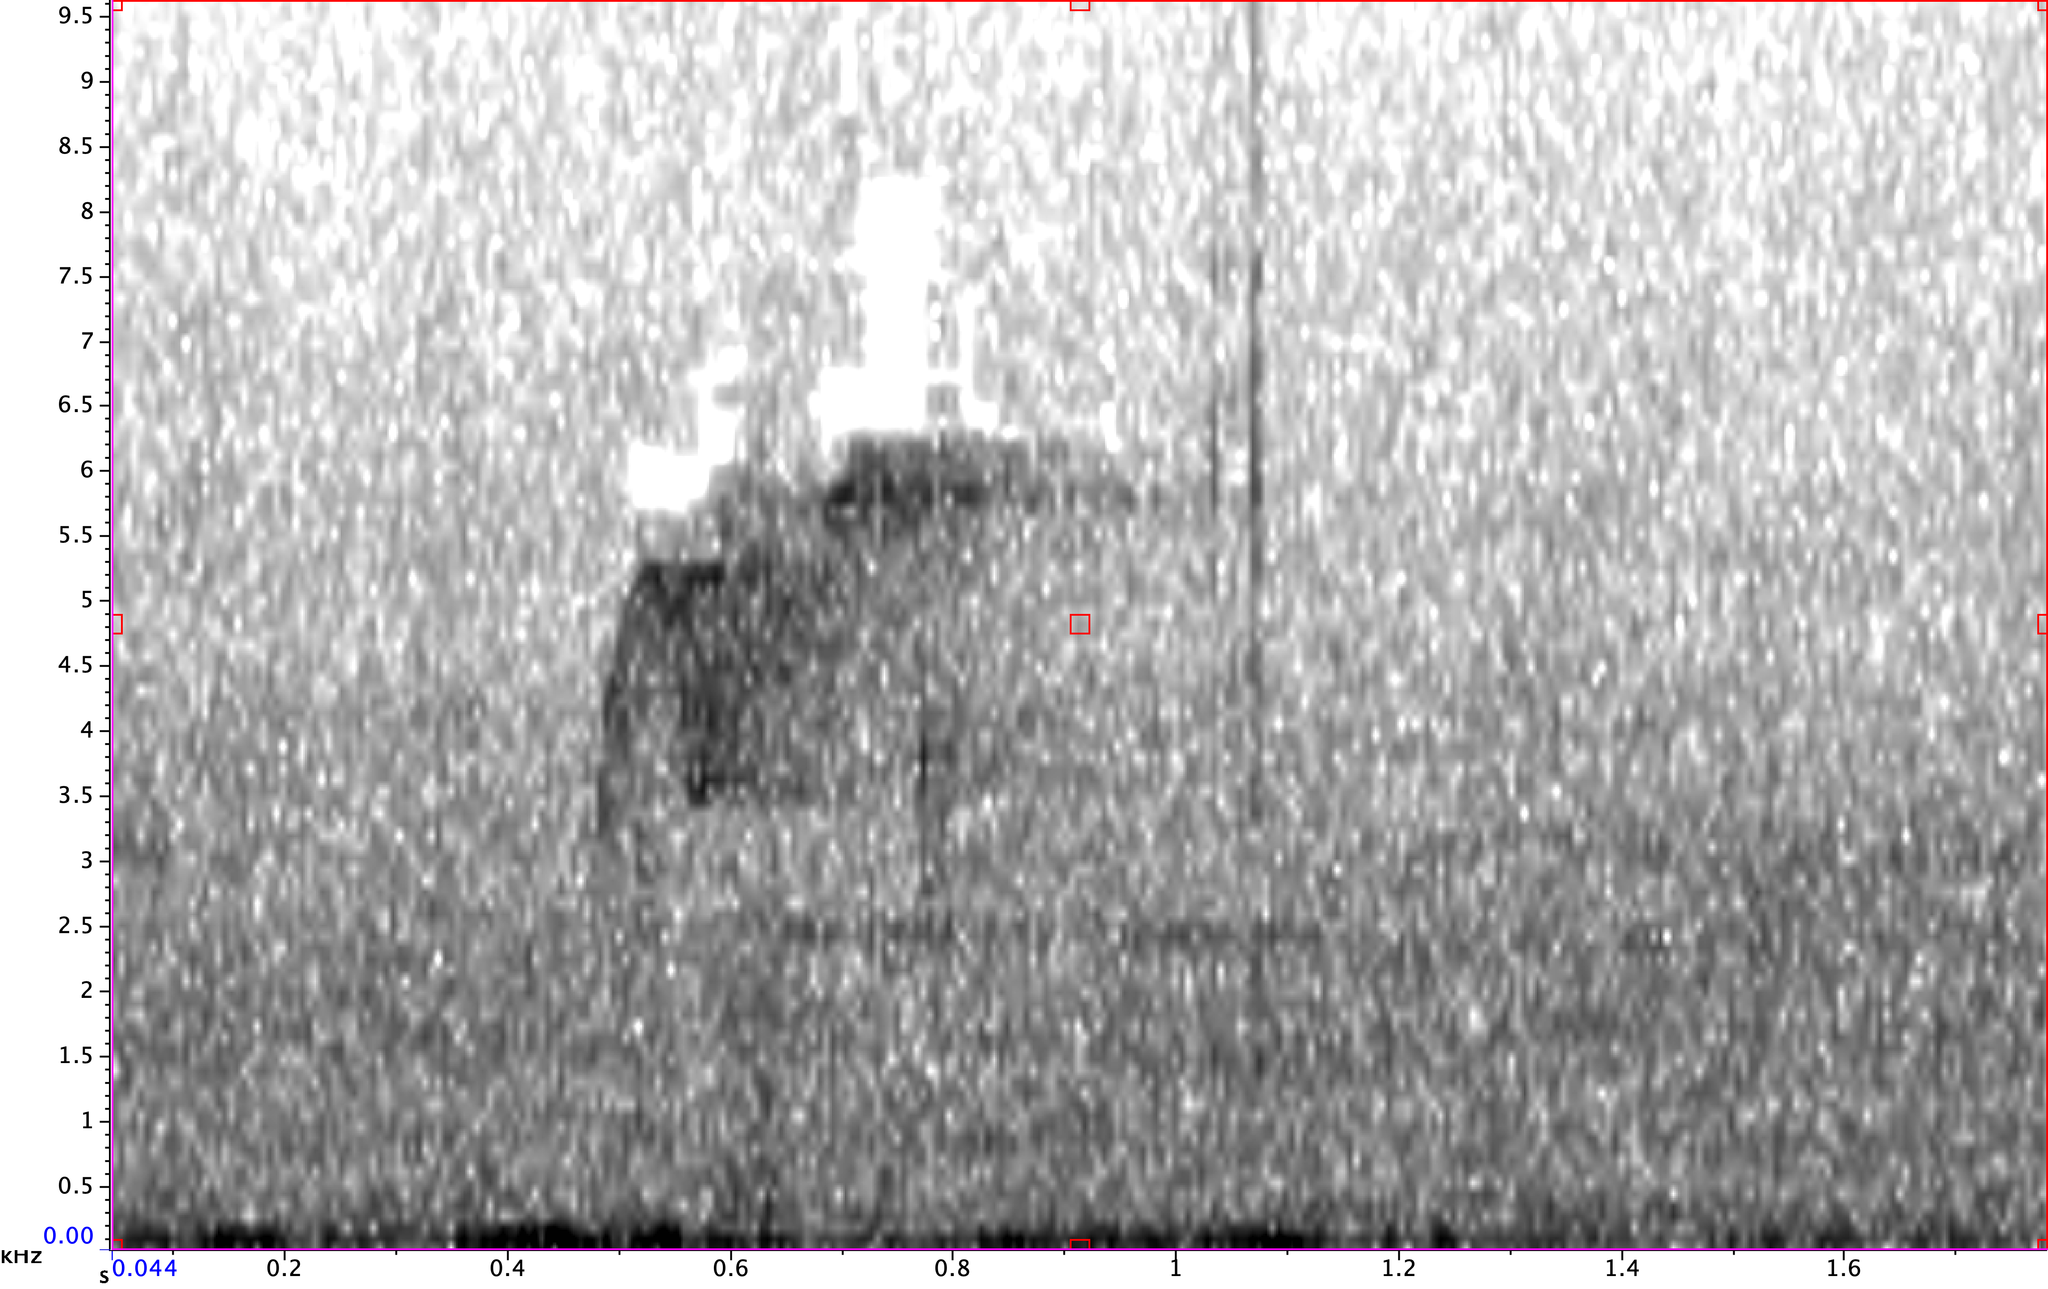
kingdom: Animalia
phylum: Chordata
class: Aves
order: Passeriformes
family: Tyrannidae
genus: Empidonax
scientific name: Empidonax virescens
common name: Acadian flycatcher
